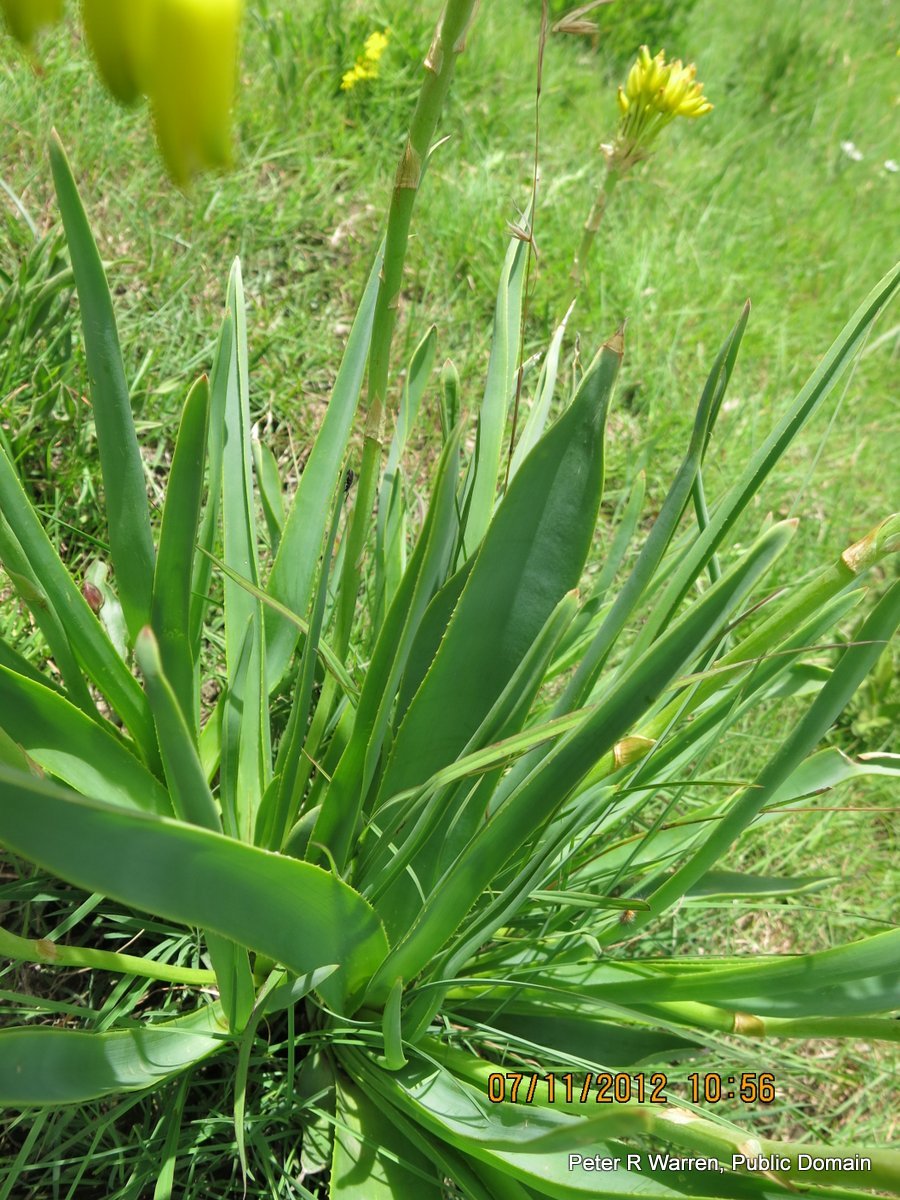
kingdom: Plantae
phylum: Tracheophyta
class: Liliopsida
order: Asparagales
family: Asphodelaceae
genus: Aloe
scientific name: Aloe ecklonis
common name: Ecklon's aloe
